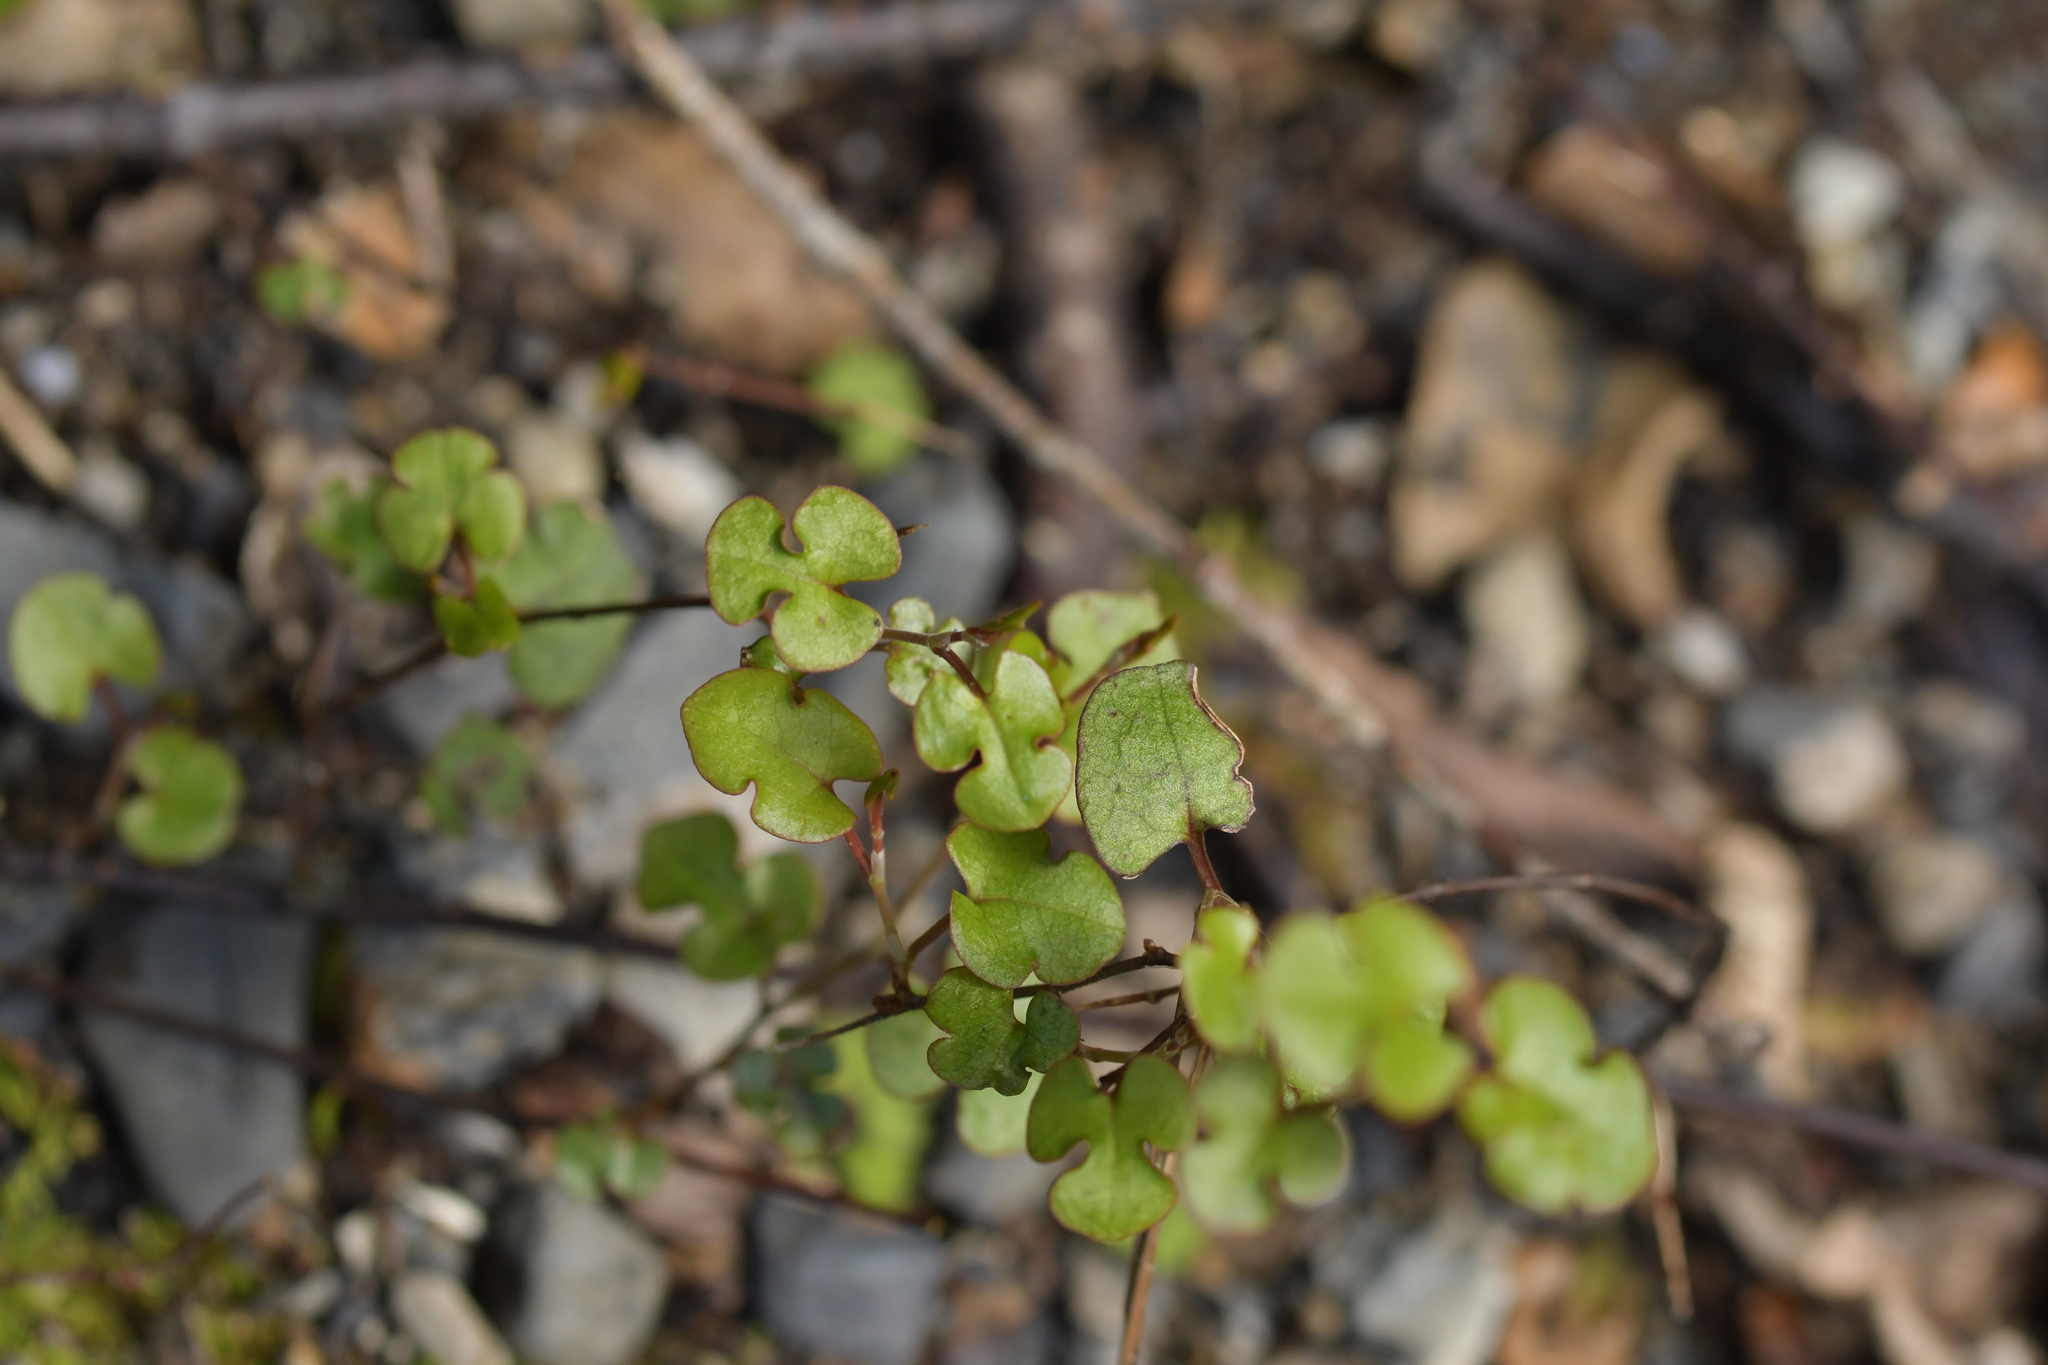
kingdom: Plantae
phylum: Tracheophyta
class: Magnoliopsida
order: Caryophyllales
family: Polygonaceae
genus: Muehlenbeckia
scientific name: Muehlenbeckia australis
